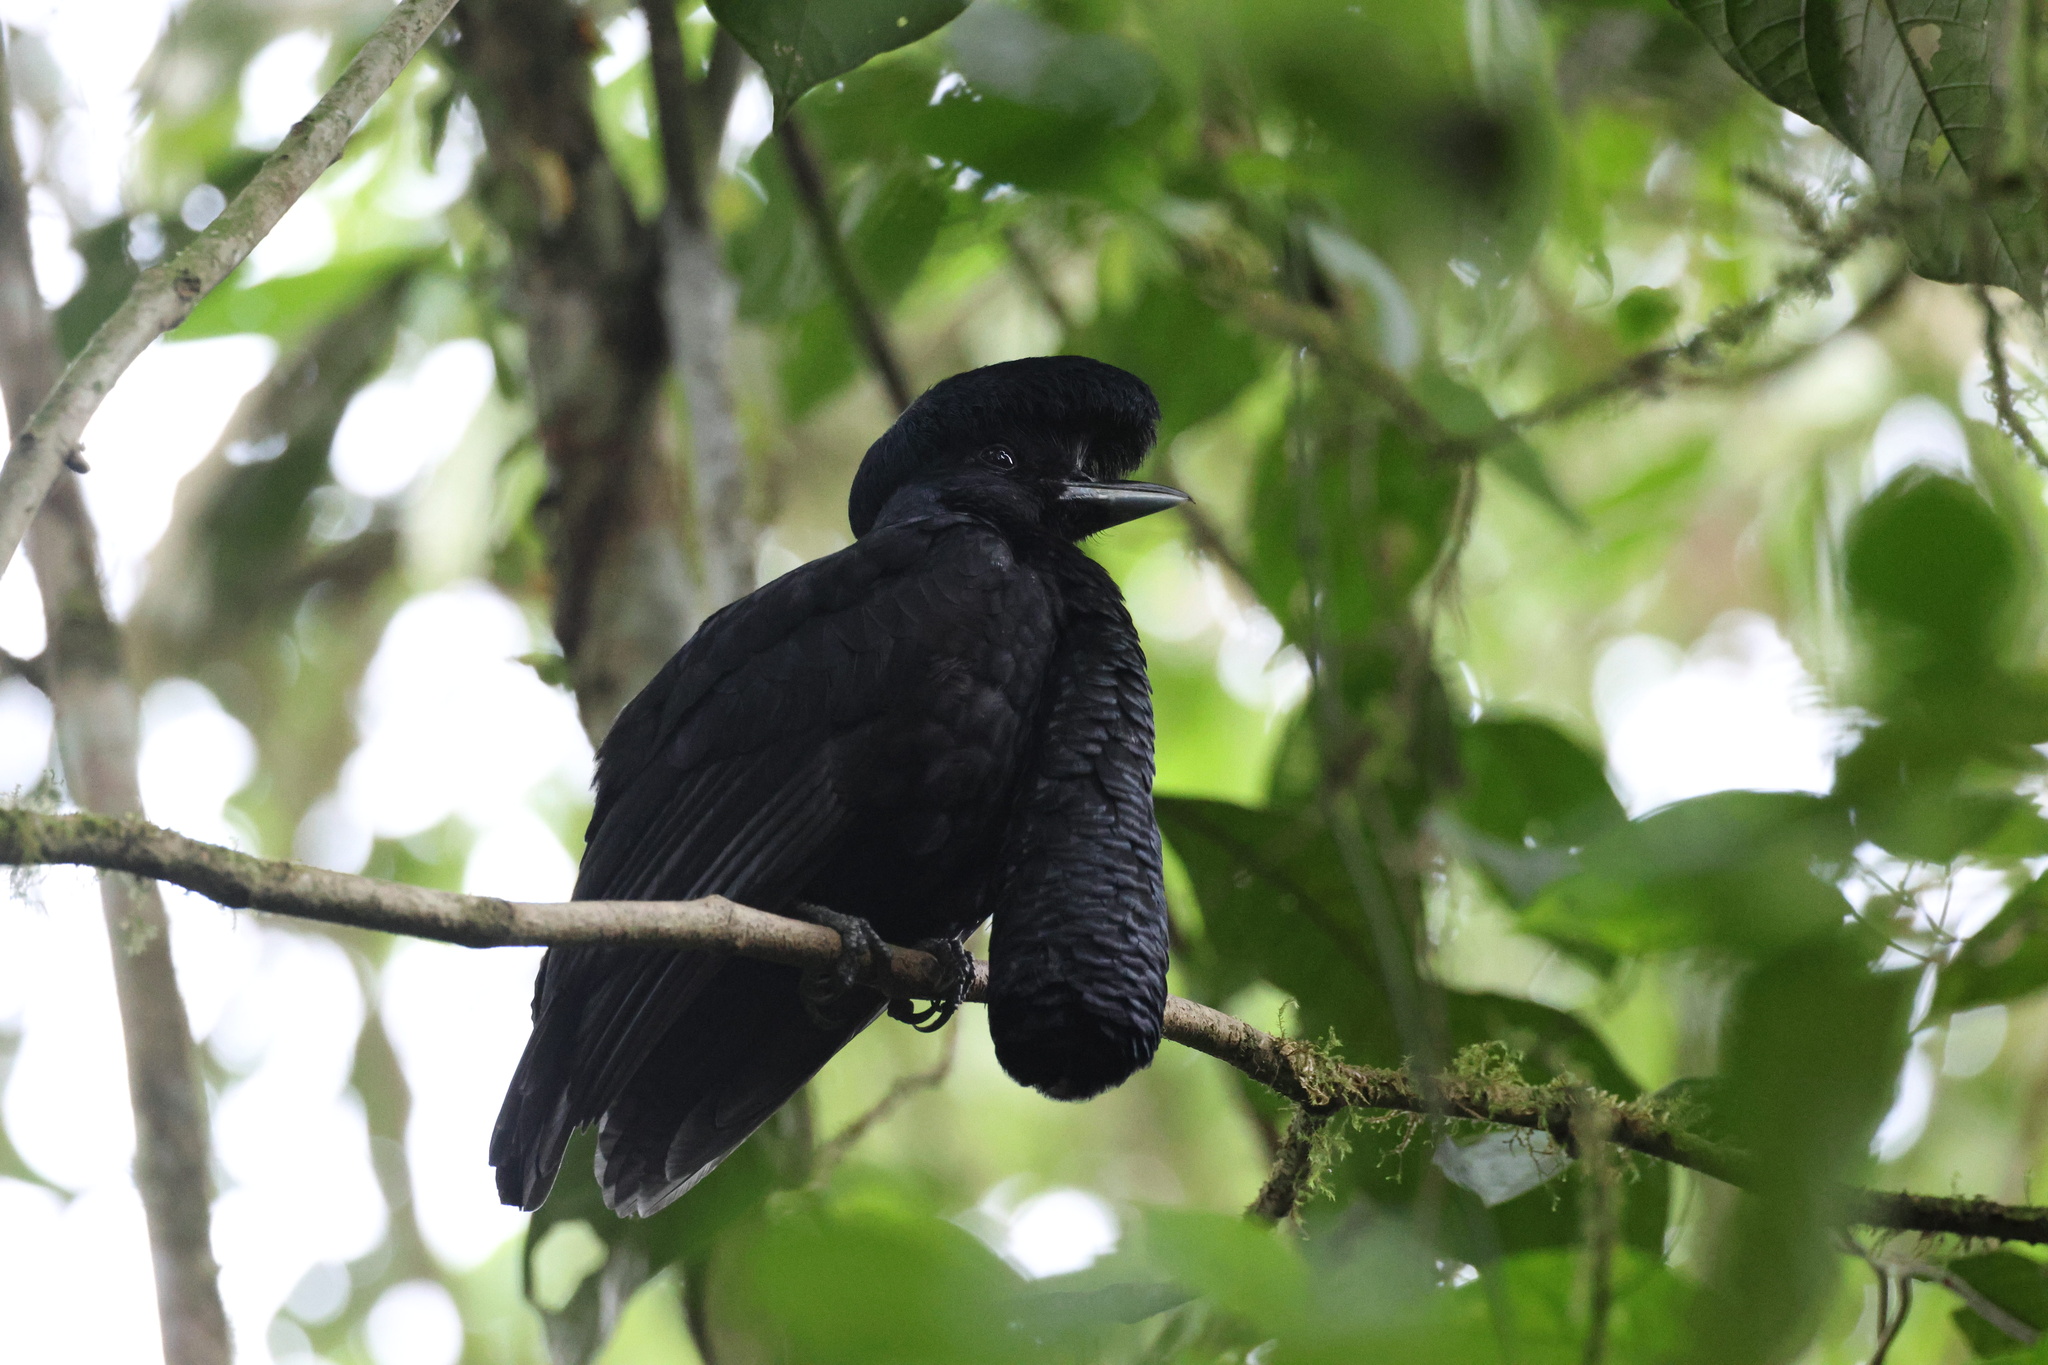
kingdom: Animalia
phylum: Chordata
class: Aves
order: Passeriformes
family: Cotingidae
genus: Cephalopterus
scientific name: Cephalopterus penduliger
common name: Long-wattled umbrellabird
